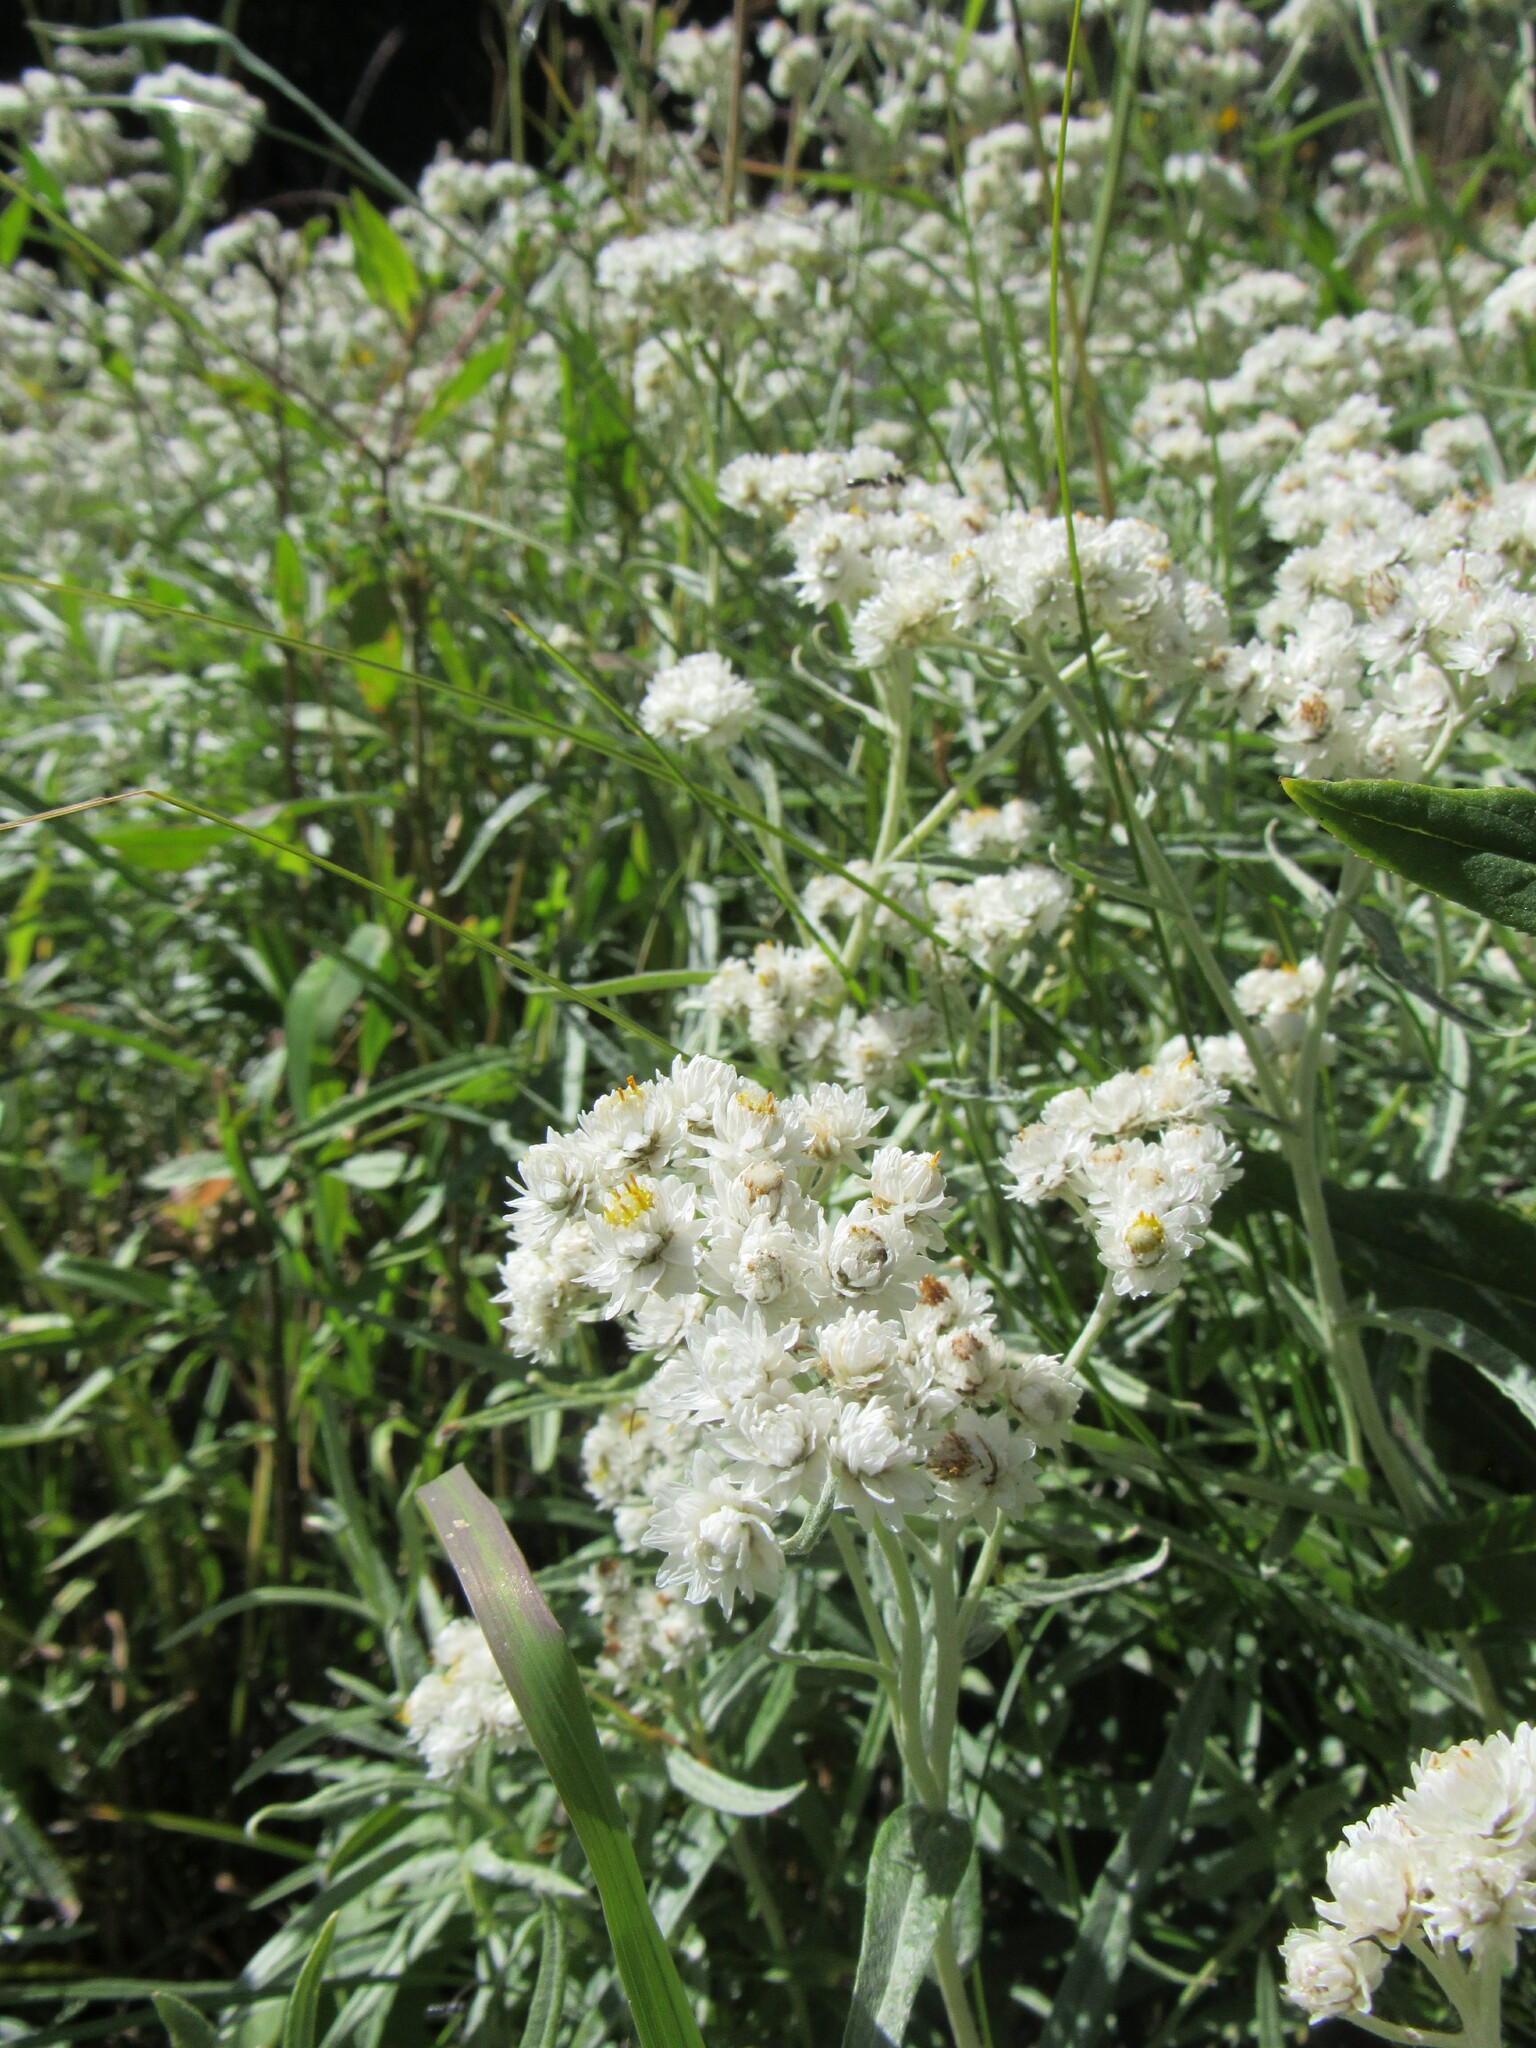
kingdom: Plantae
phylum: Tracheophyta
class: Magnoliopsida
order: Asterales
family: Asteraceae
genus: Anaphalis
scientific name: Anaphalis margaritacea
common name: Pearly everlasting
